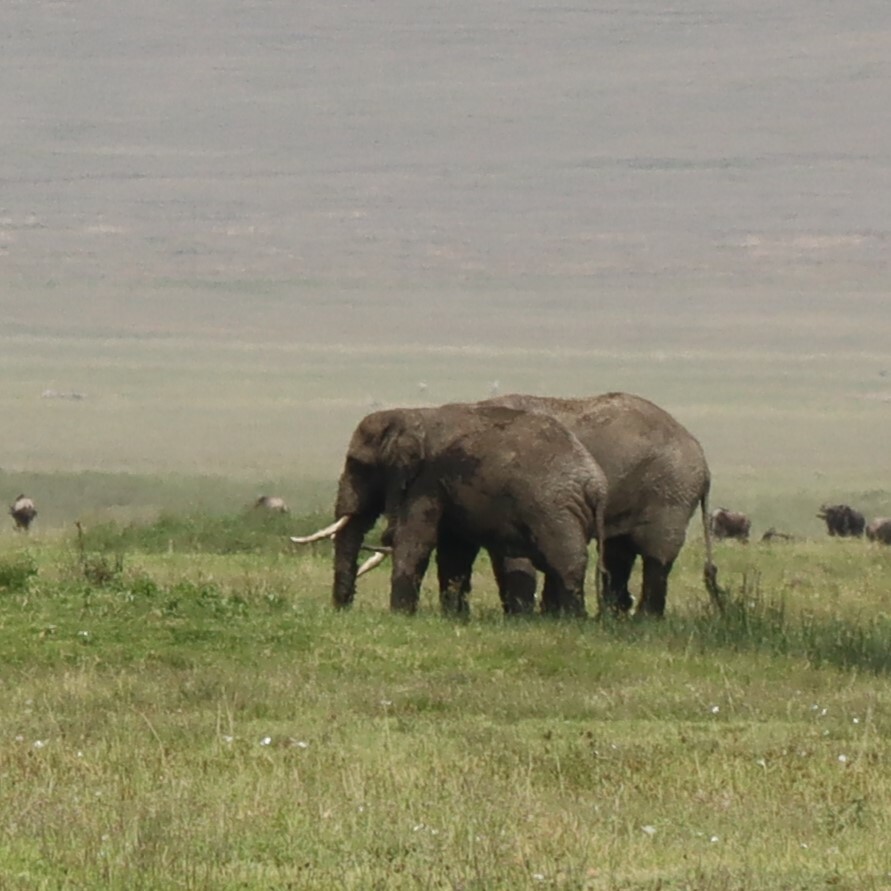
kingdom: Animalia
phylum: Chordata
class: Mammalia
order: Proboscidea
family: Elephantidae
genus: Loxodonta
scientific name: Loxodonta africana
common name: African elephant
